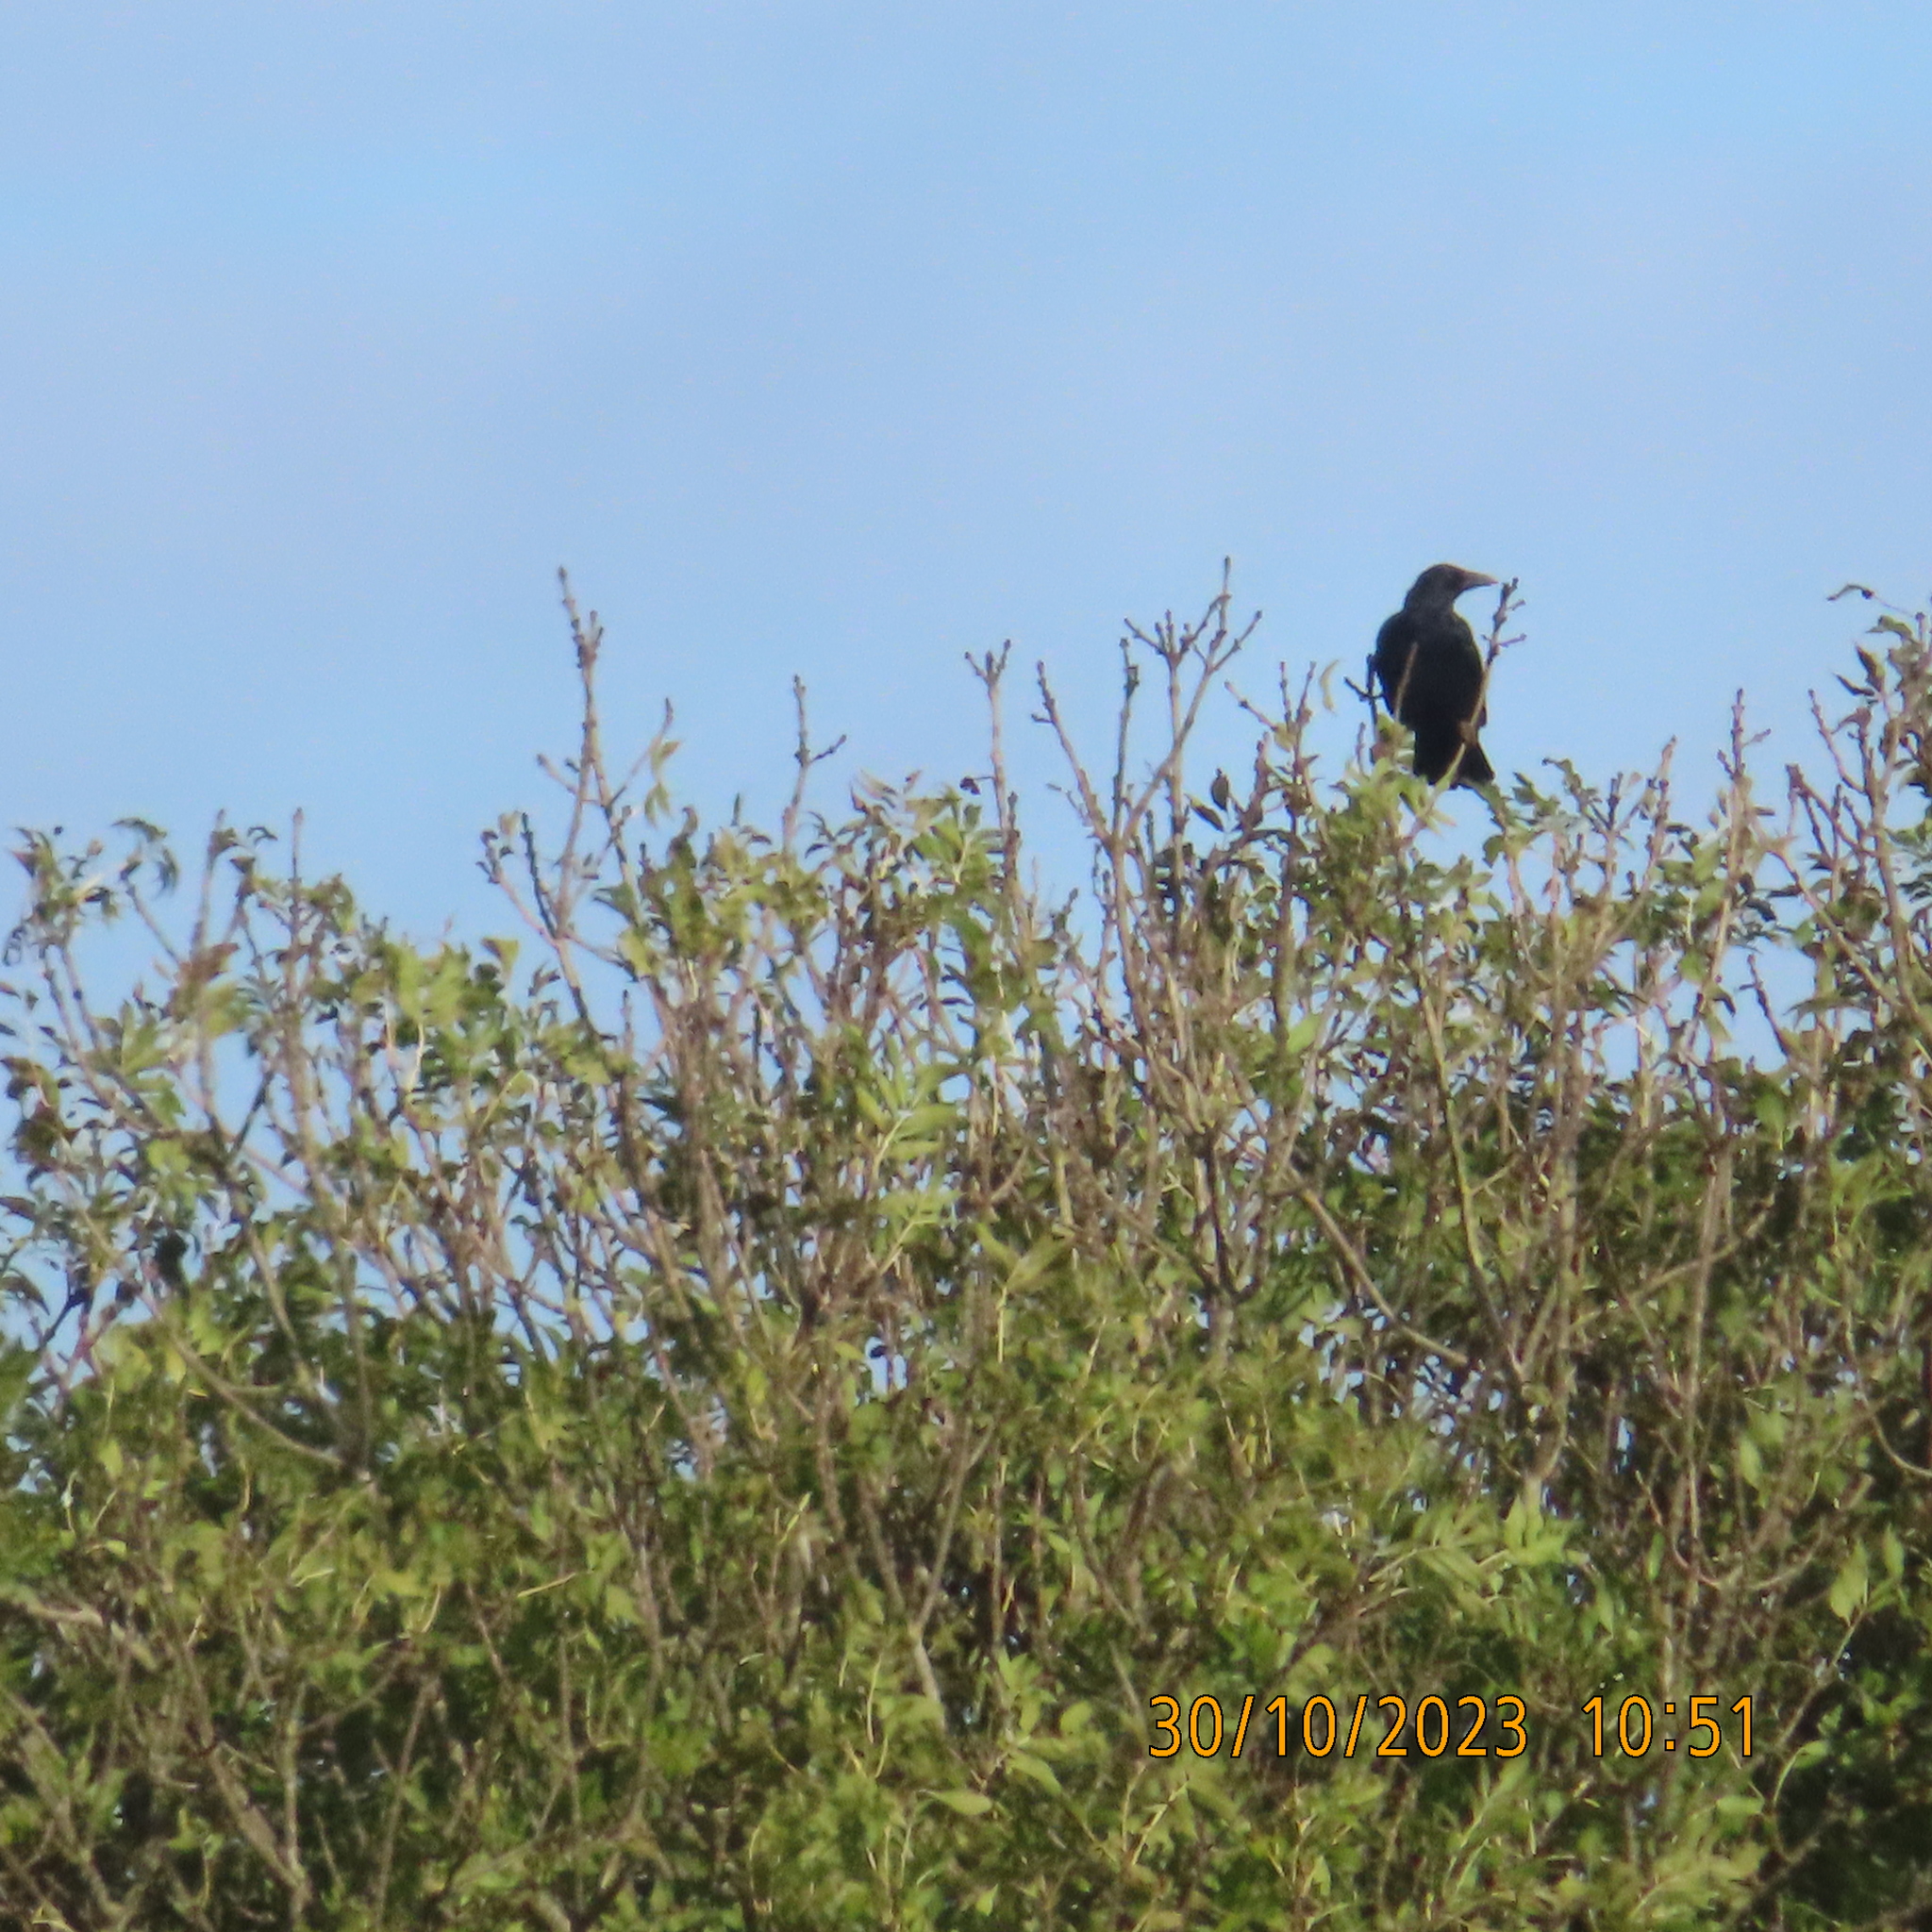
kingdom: Animalia
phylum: Chordata
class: Aves
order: Passeriformes
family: Corvidae
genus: Corvus
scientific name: Corvus corone
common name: Carrion crow
